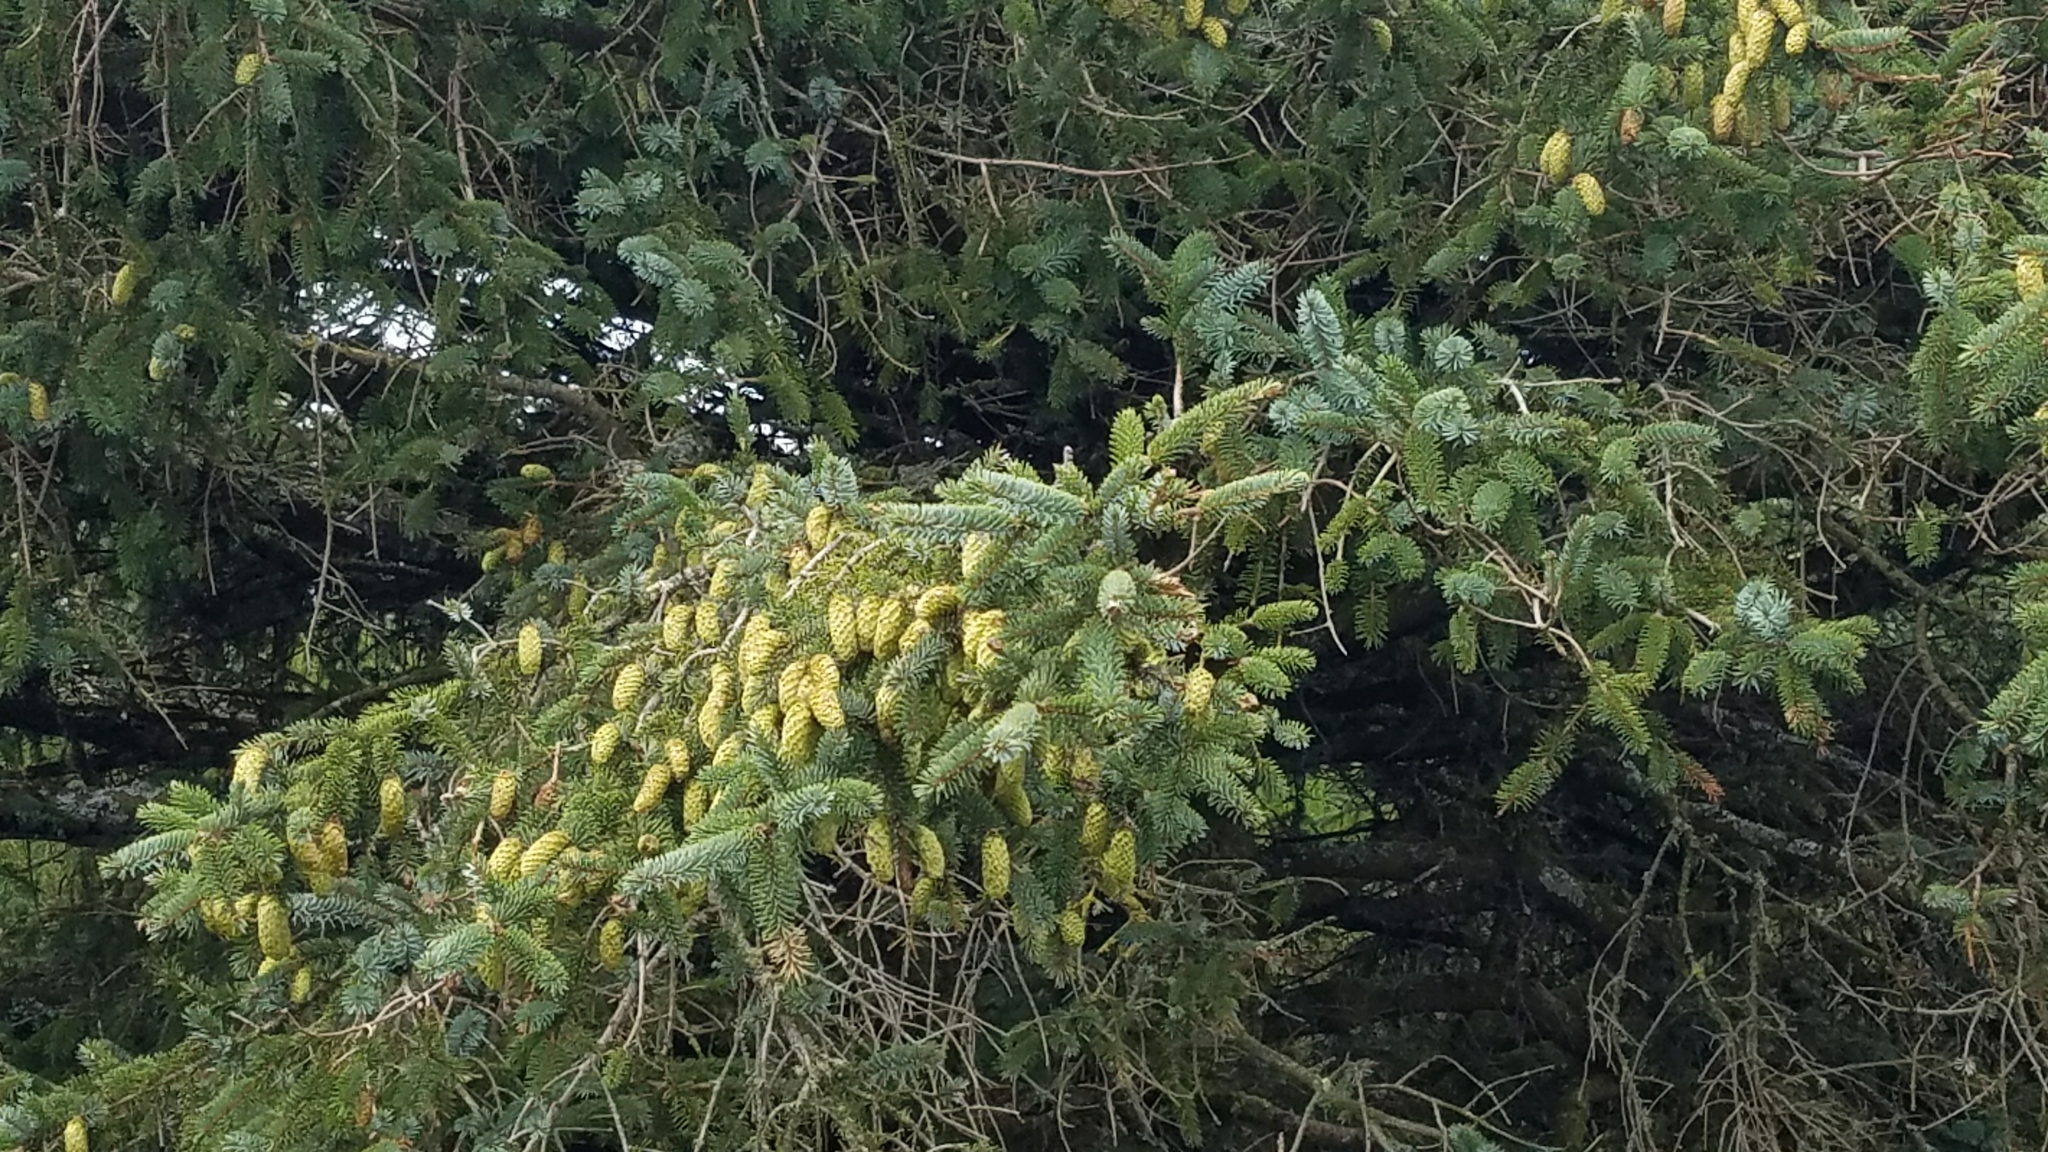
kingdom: Plantae
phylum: Tracheophyta
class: Pinopsida
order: Pinales
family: Pinaceae
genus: Picea
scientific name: Picea sitchensis
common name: Sitka spruce
